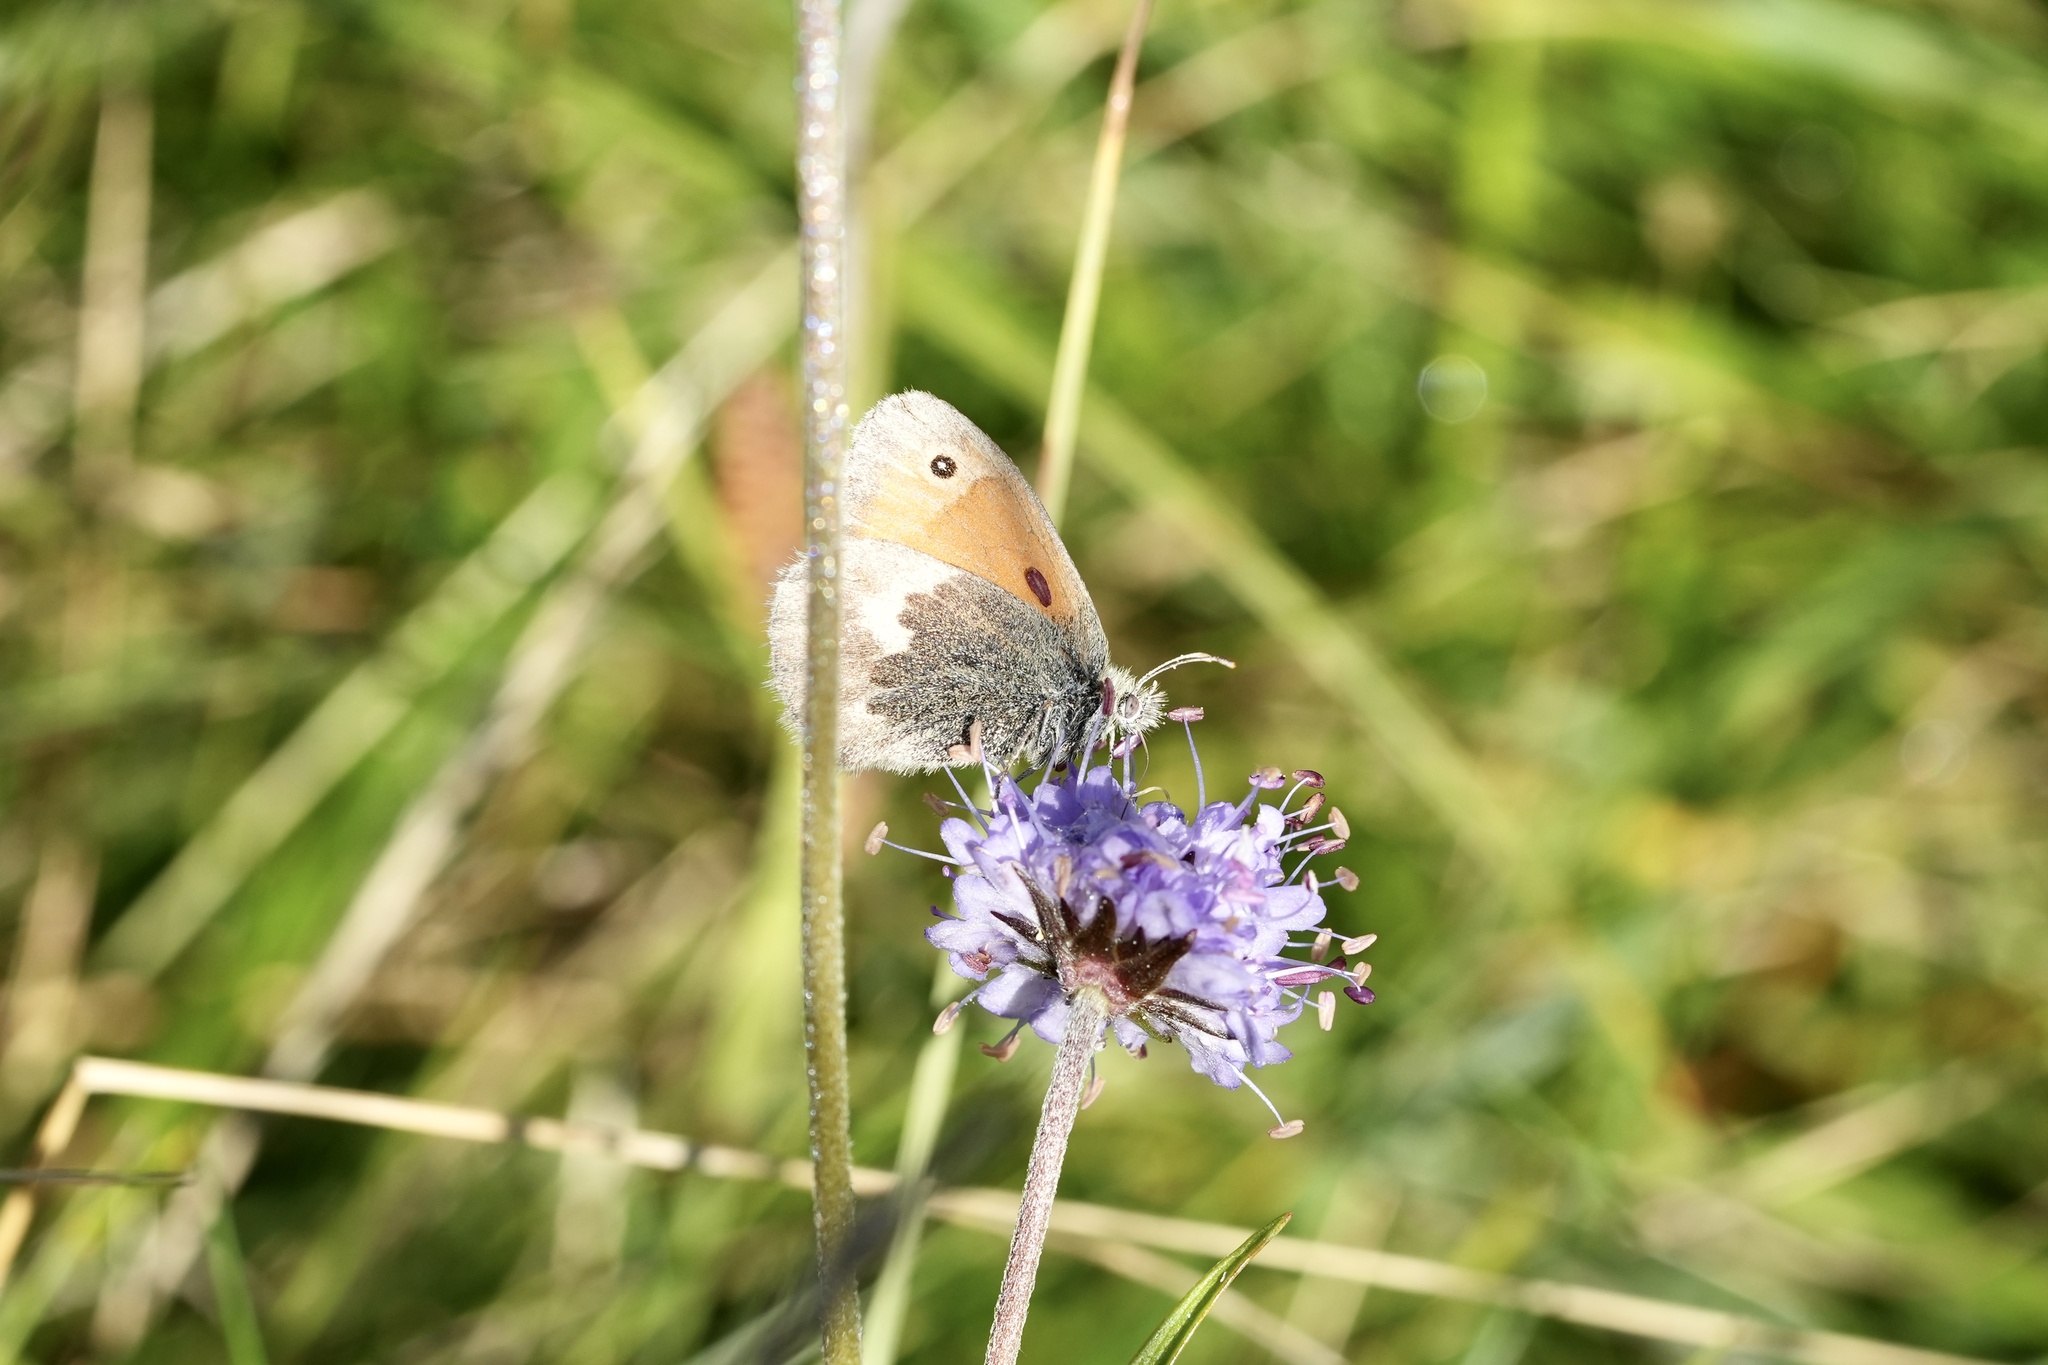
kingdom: Animalia
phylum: Arthropoda
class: Insecta
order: Lepidoptera
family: Nymphalidae
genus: Coenonympha
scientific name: Coenonympha pamphilus
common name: Small heath
